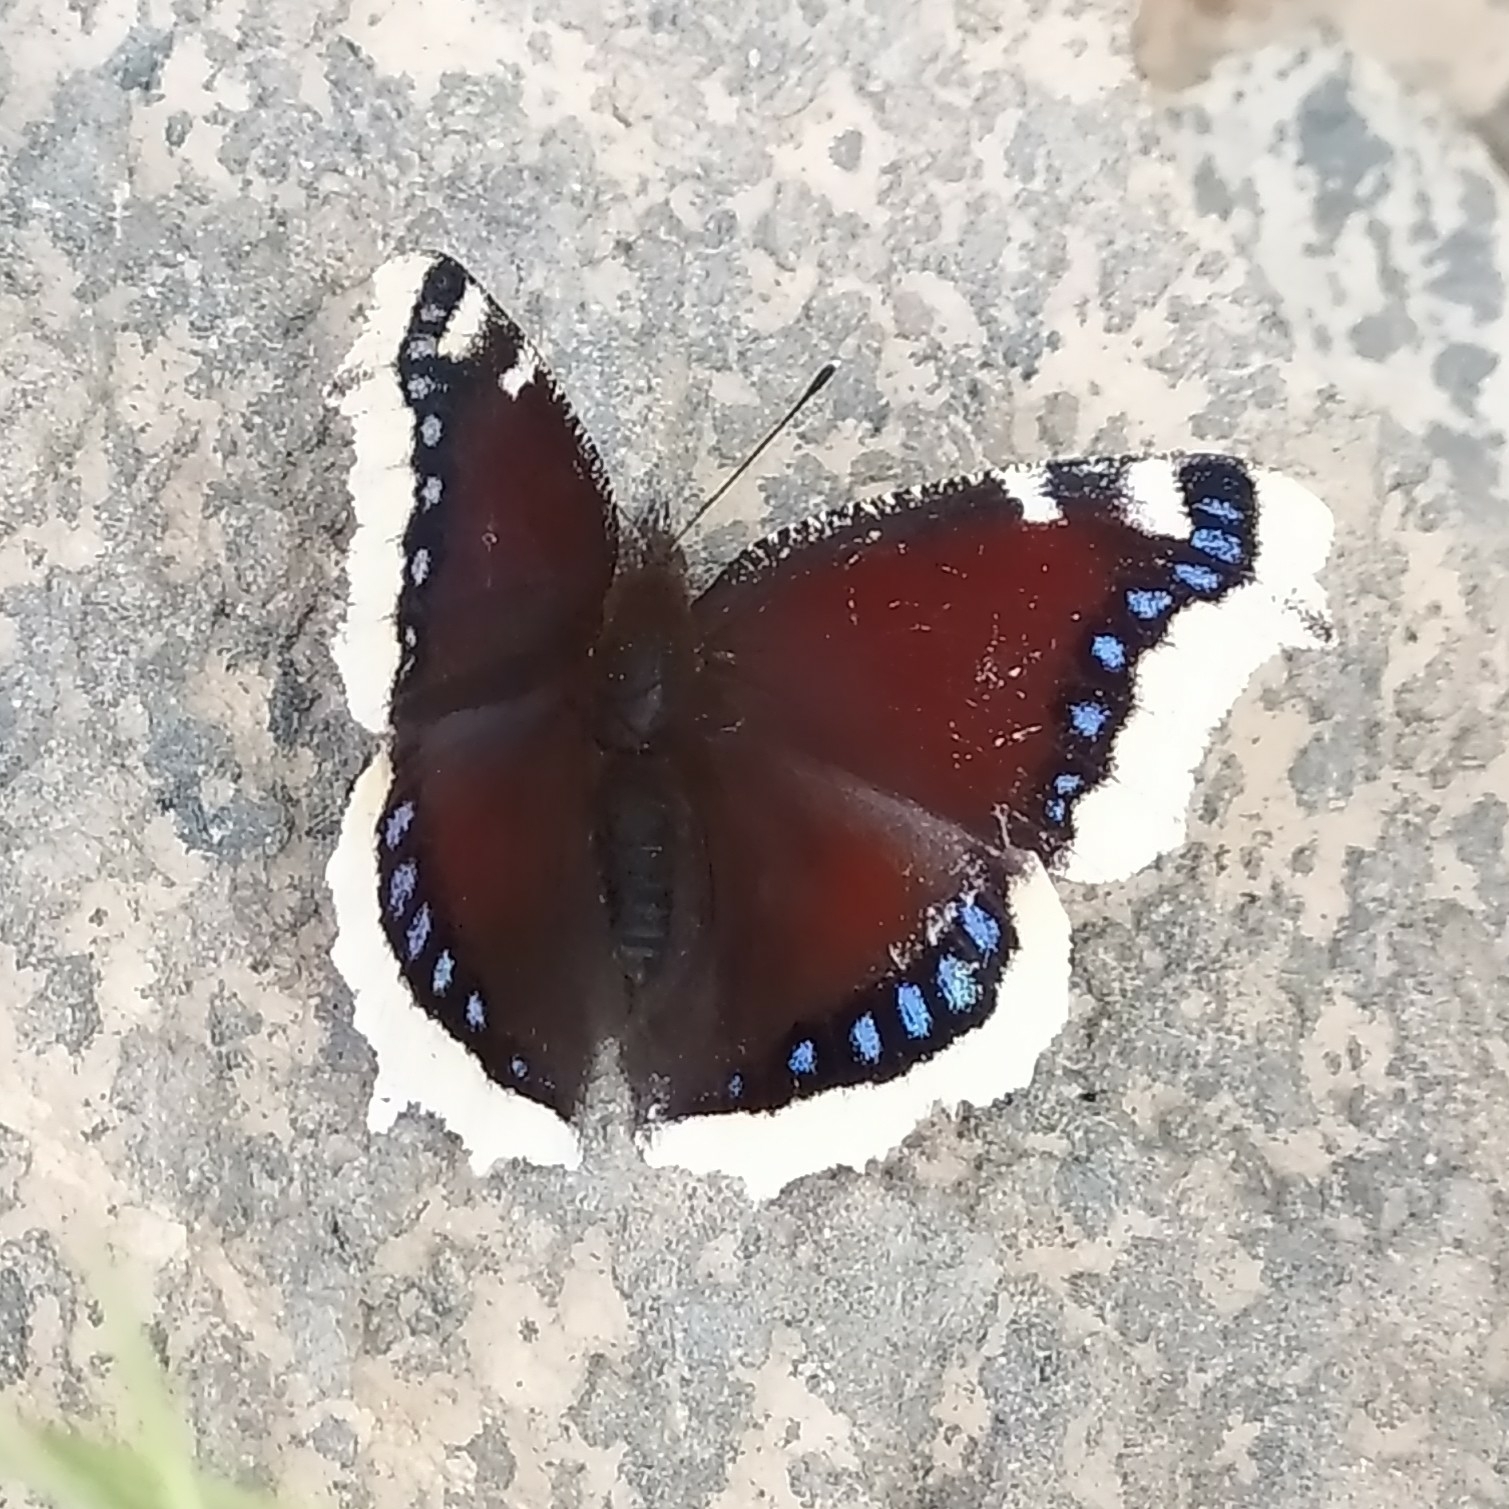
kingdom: Animalia
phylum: Arthropoda
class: Insecta
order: Lepidoptera
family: Nymphalidae
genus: Nymphalis
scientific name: Nymphalis antiopa
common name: Camberwell beauty
